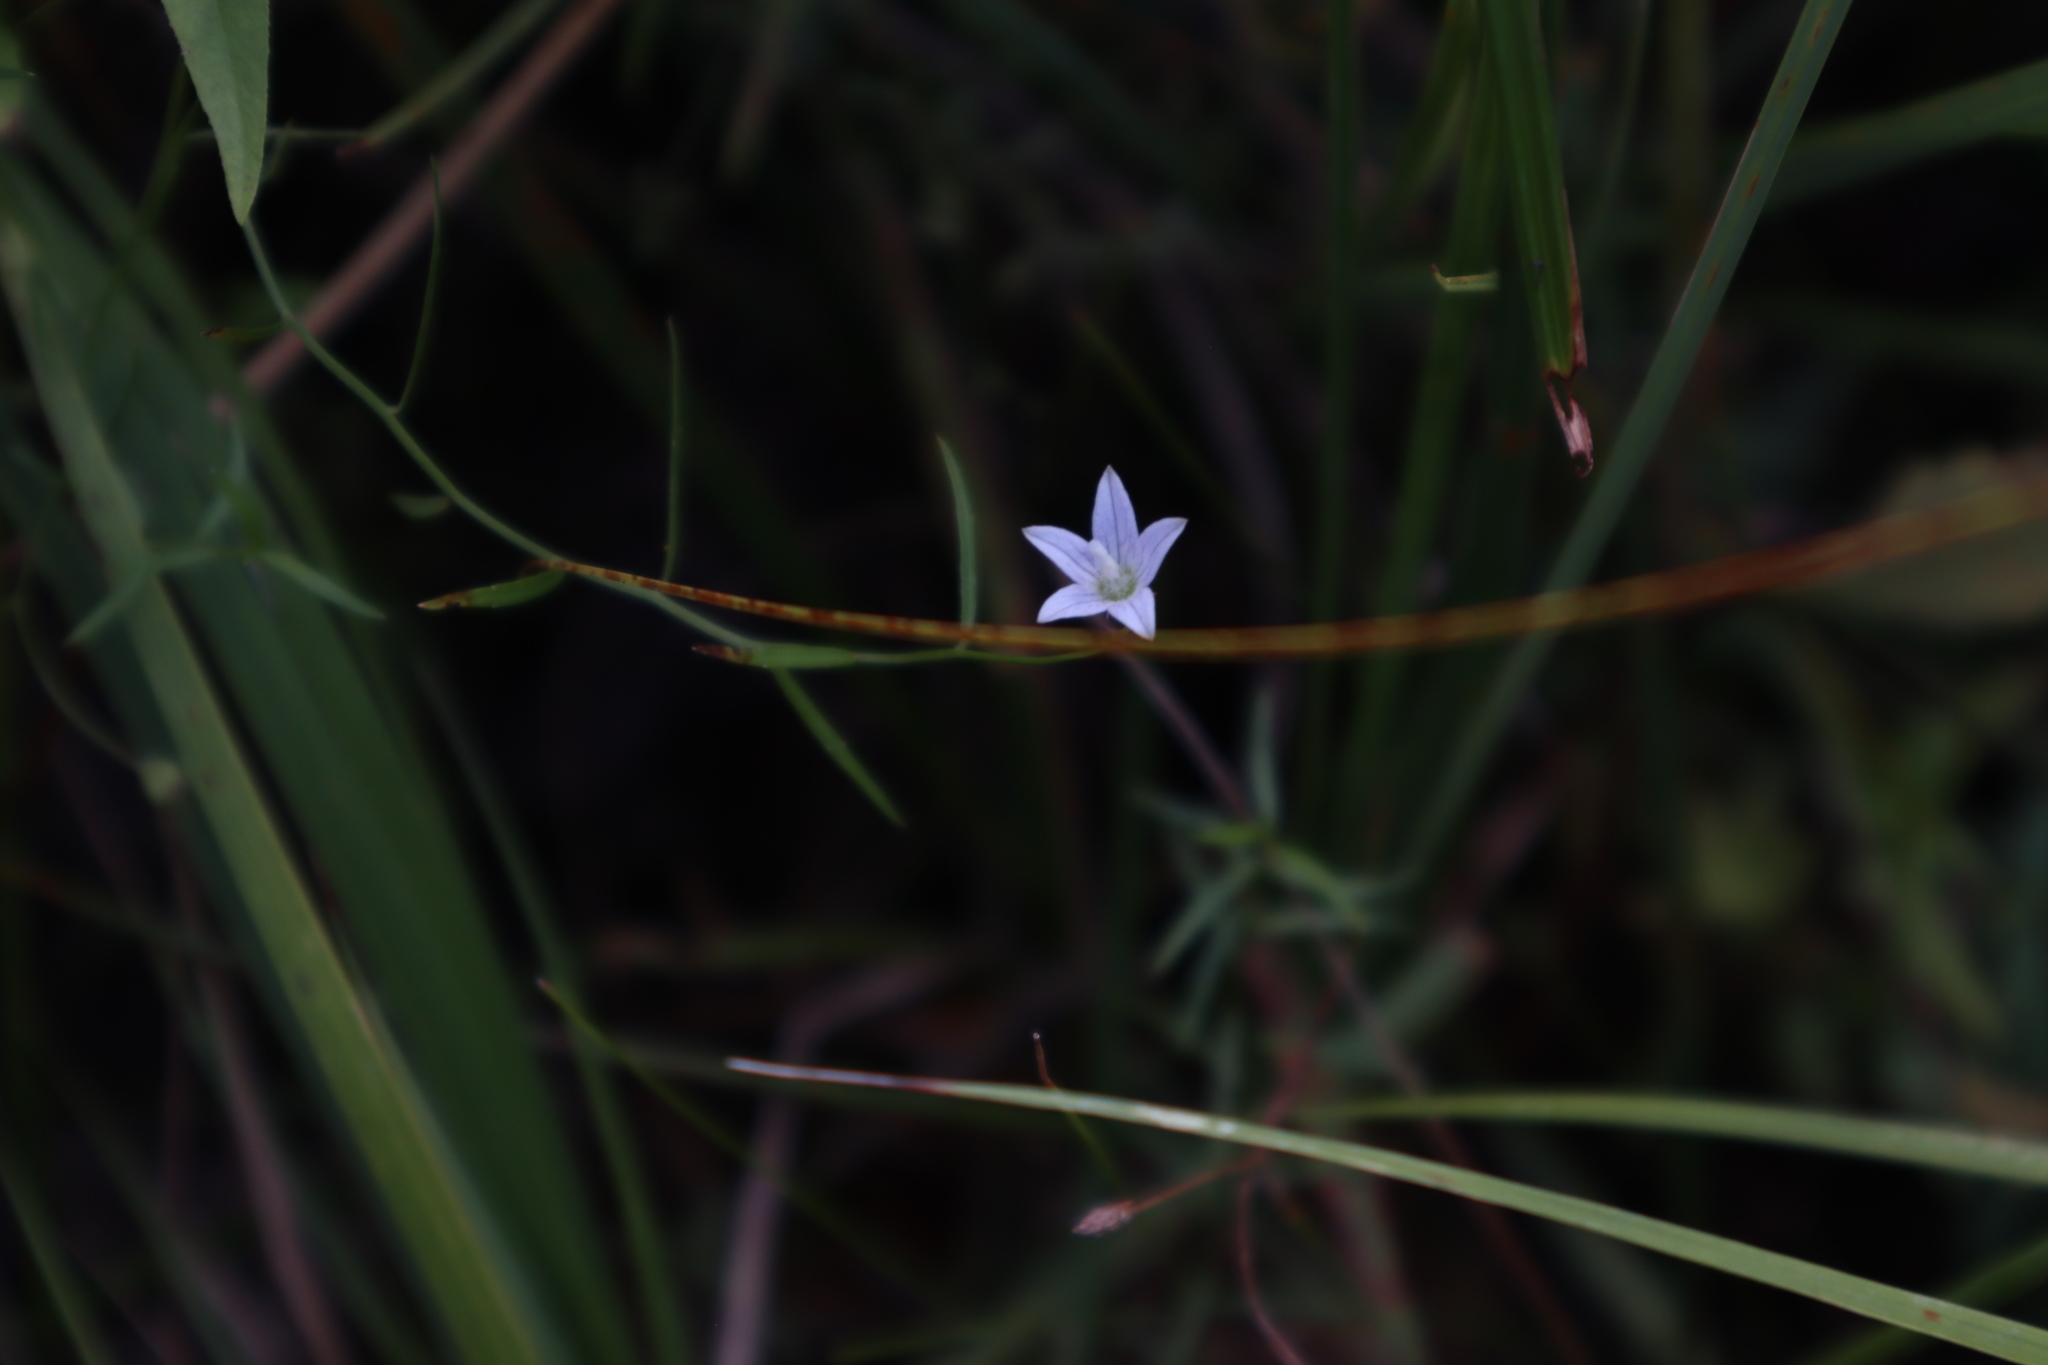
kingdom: Plantae
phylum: Tracheophyta
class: Magnoliopsida
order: Asterales
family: Campanulaceae
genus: Palustricodon
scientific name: Palustricodon aparinoides
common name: Bedstraw bellflower
